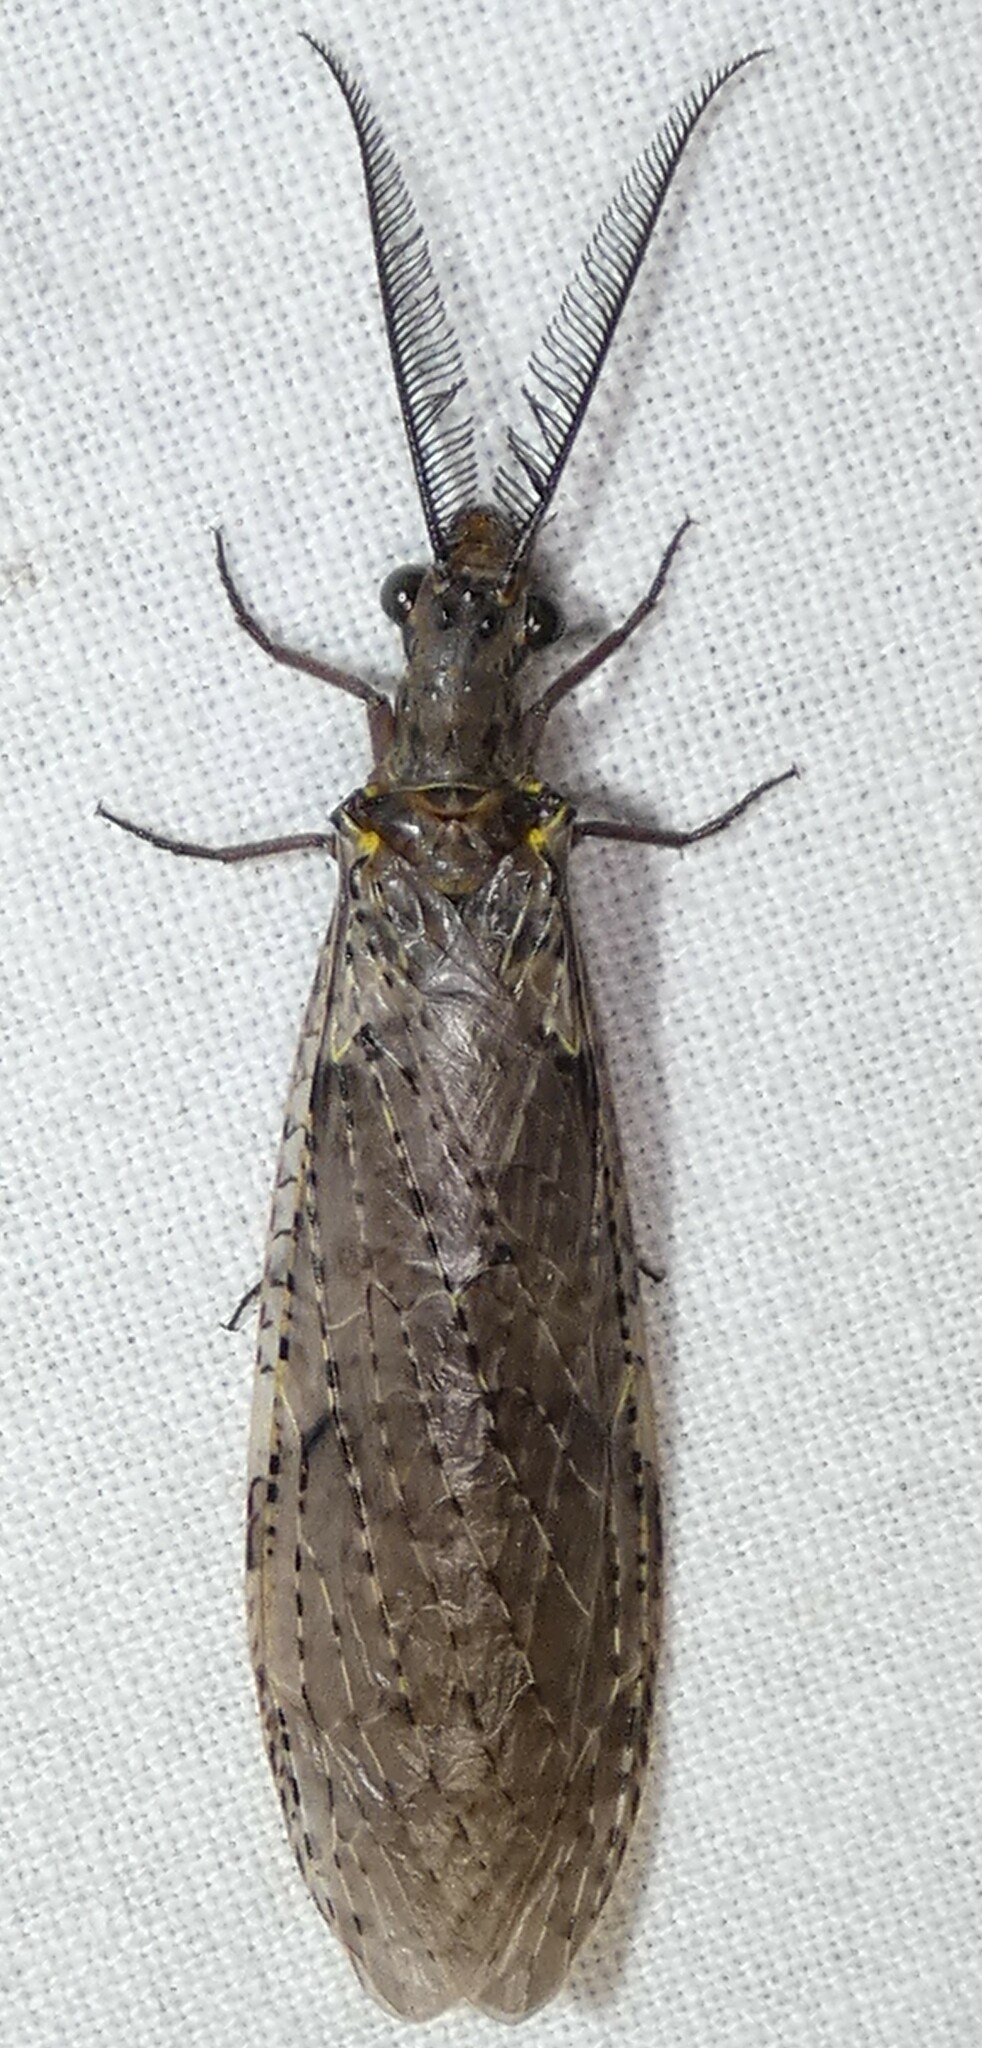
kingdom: Animalia
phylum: Arthropoda
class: Insecta
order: Megaloptera
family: Corydalidae
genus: Chauliodes
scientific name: Chauliodes rastricornis
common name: Spring fishfly
